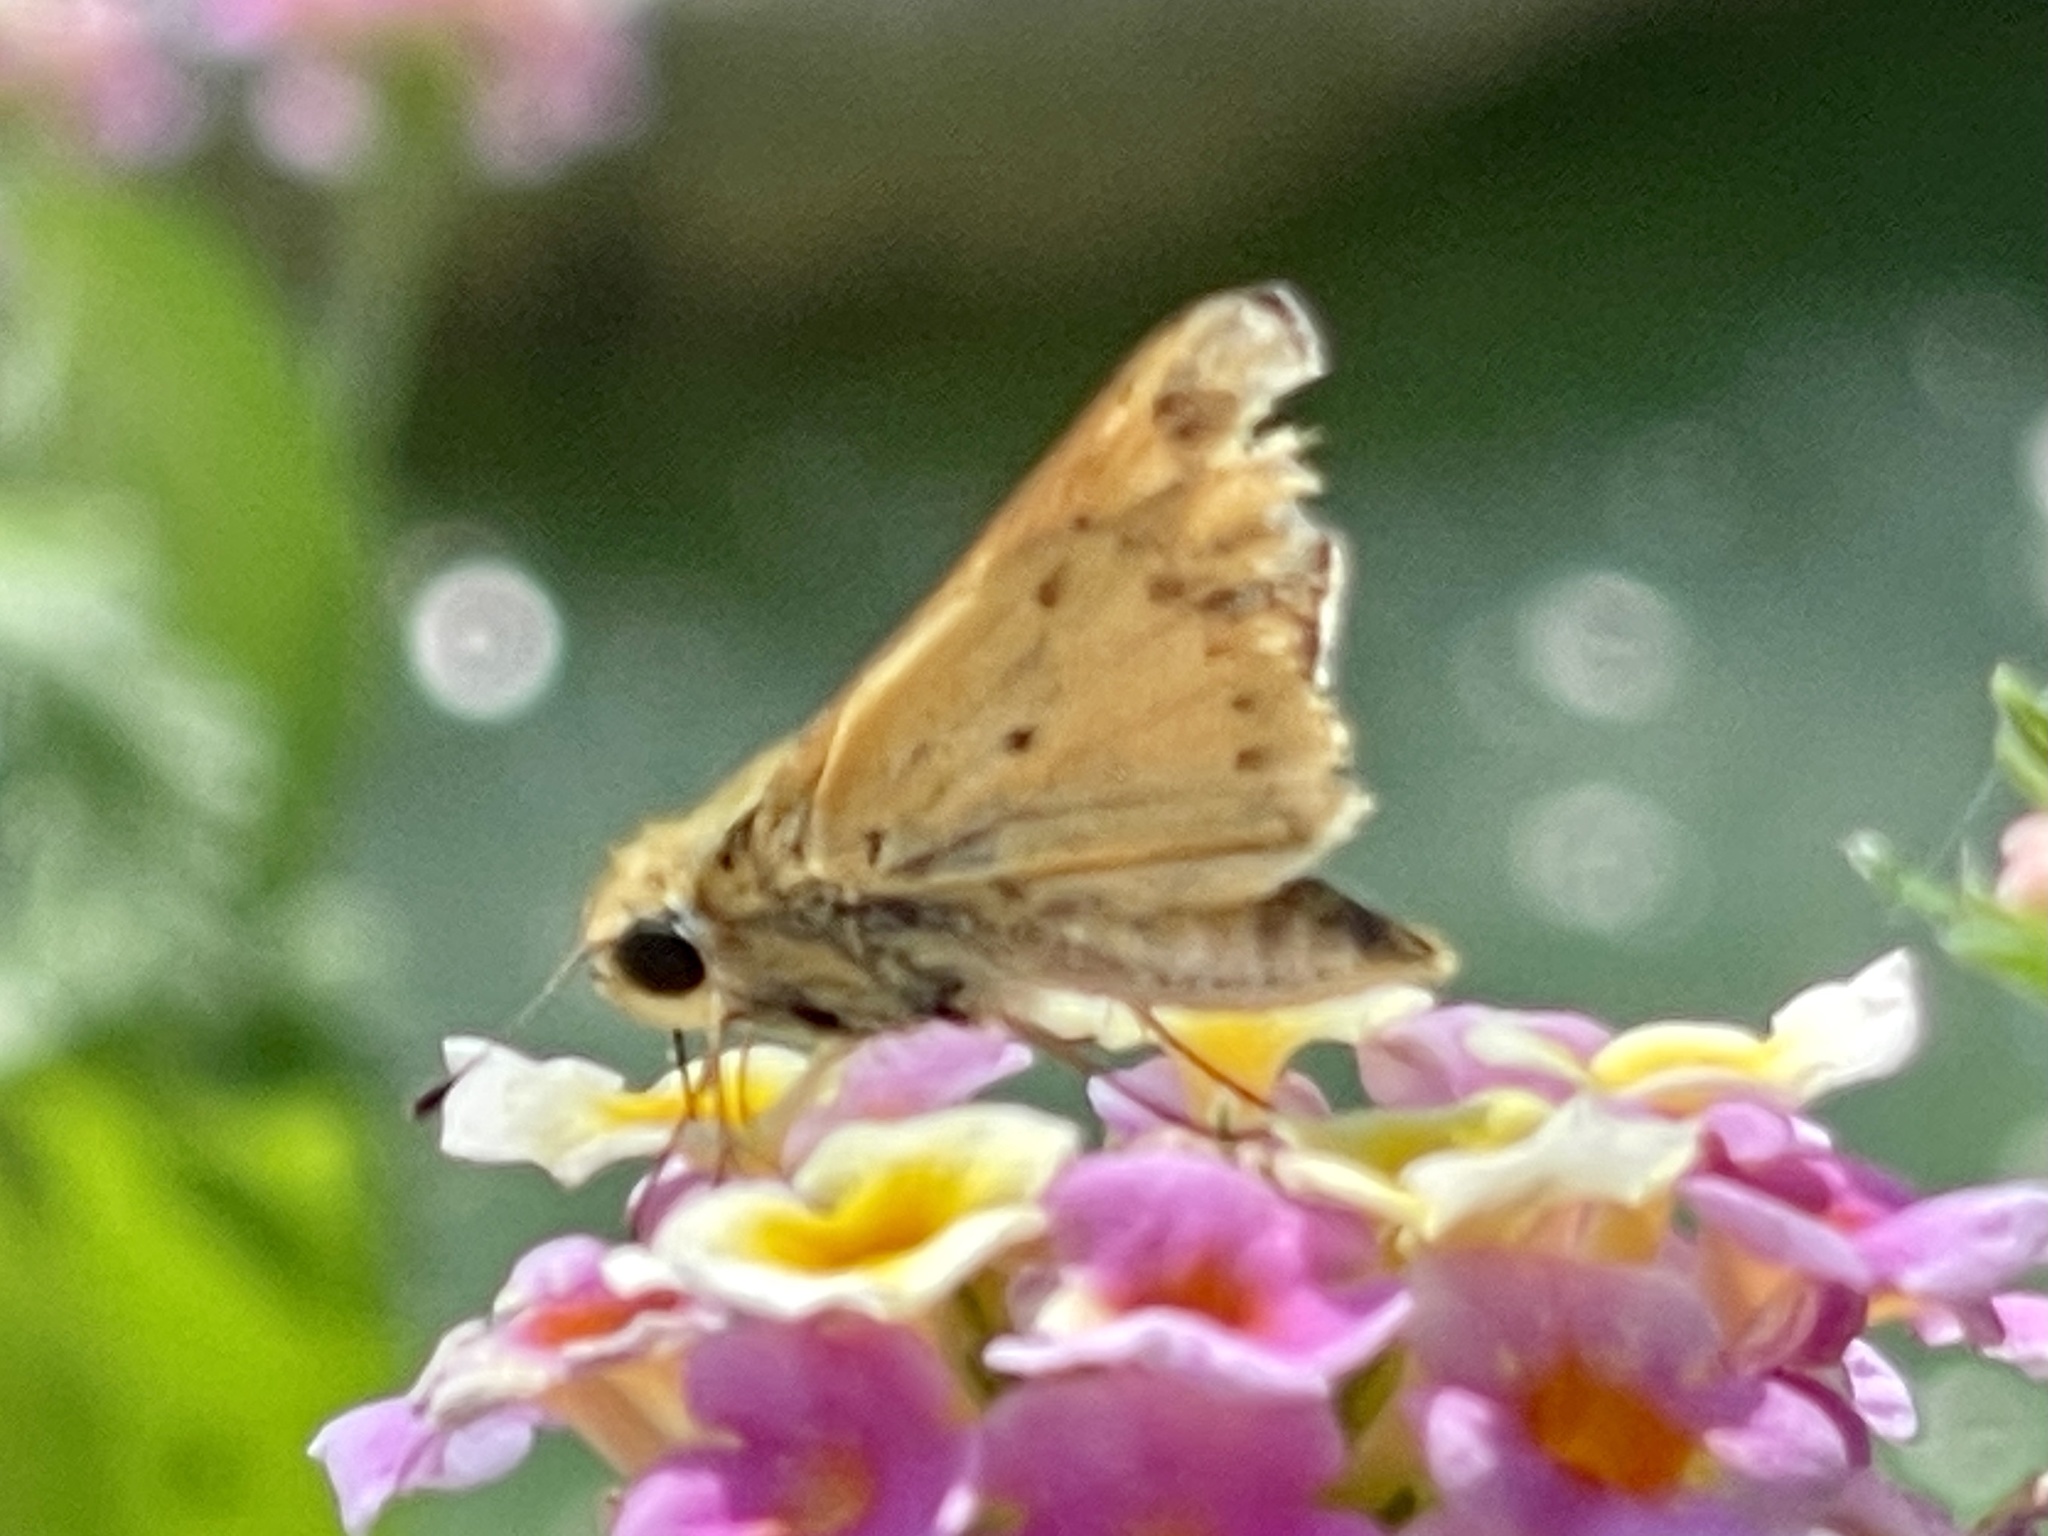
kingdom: Animalia
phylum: Arthropoda
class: Insecta
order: Lepidoptera
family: Hesperiidae
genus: Hylephila
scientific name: Hylephila phyleus
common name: Fiery skipper
